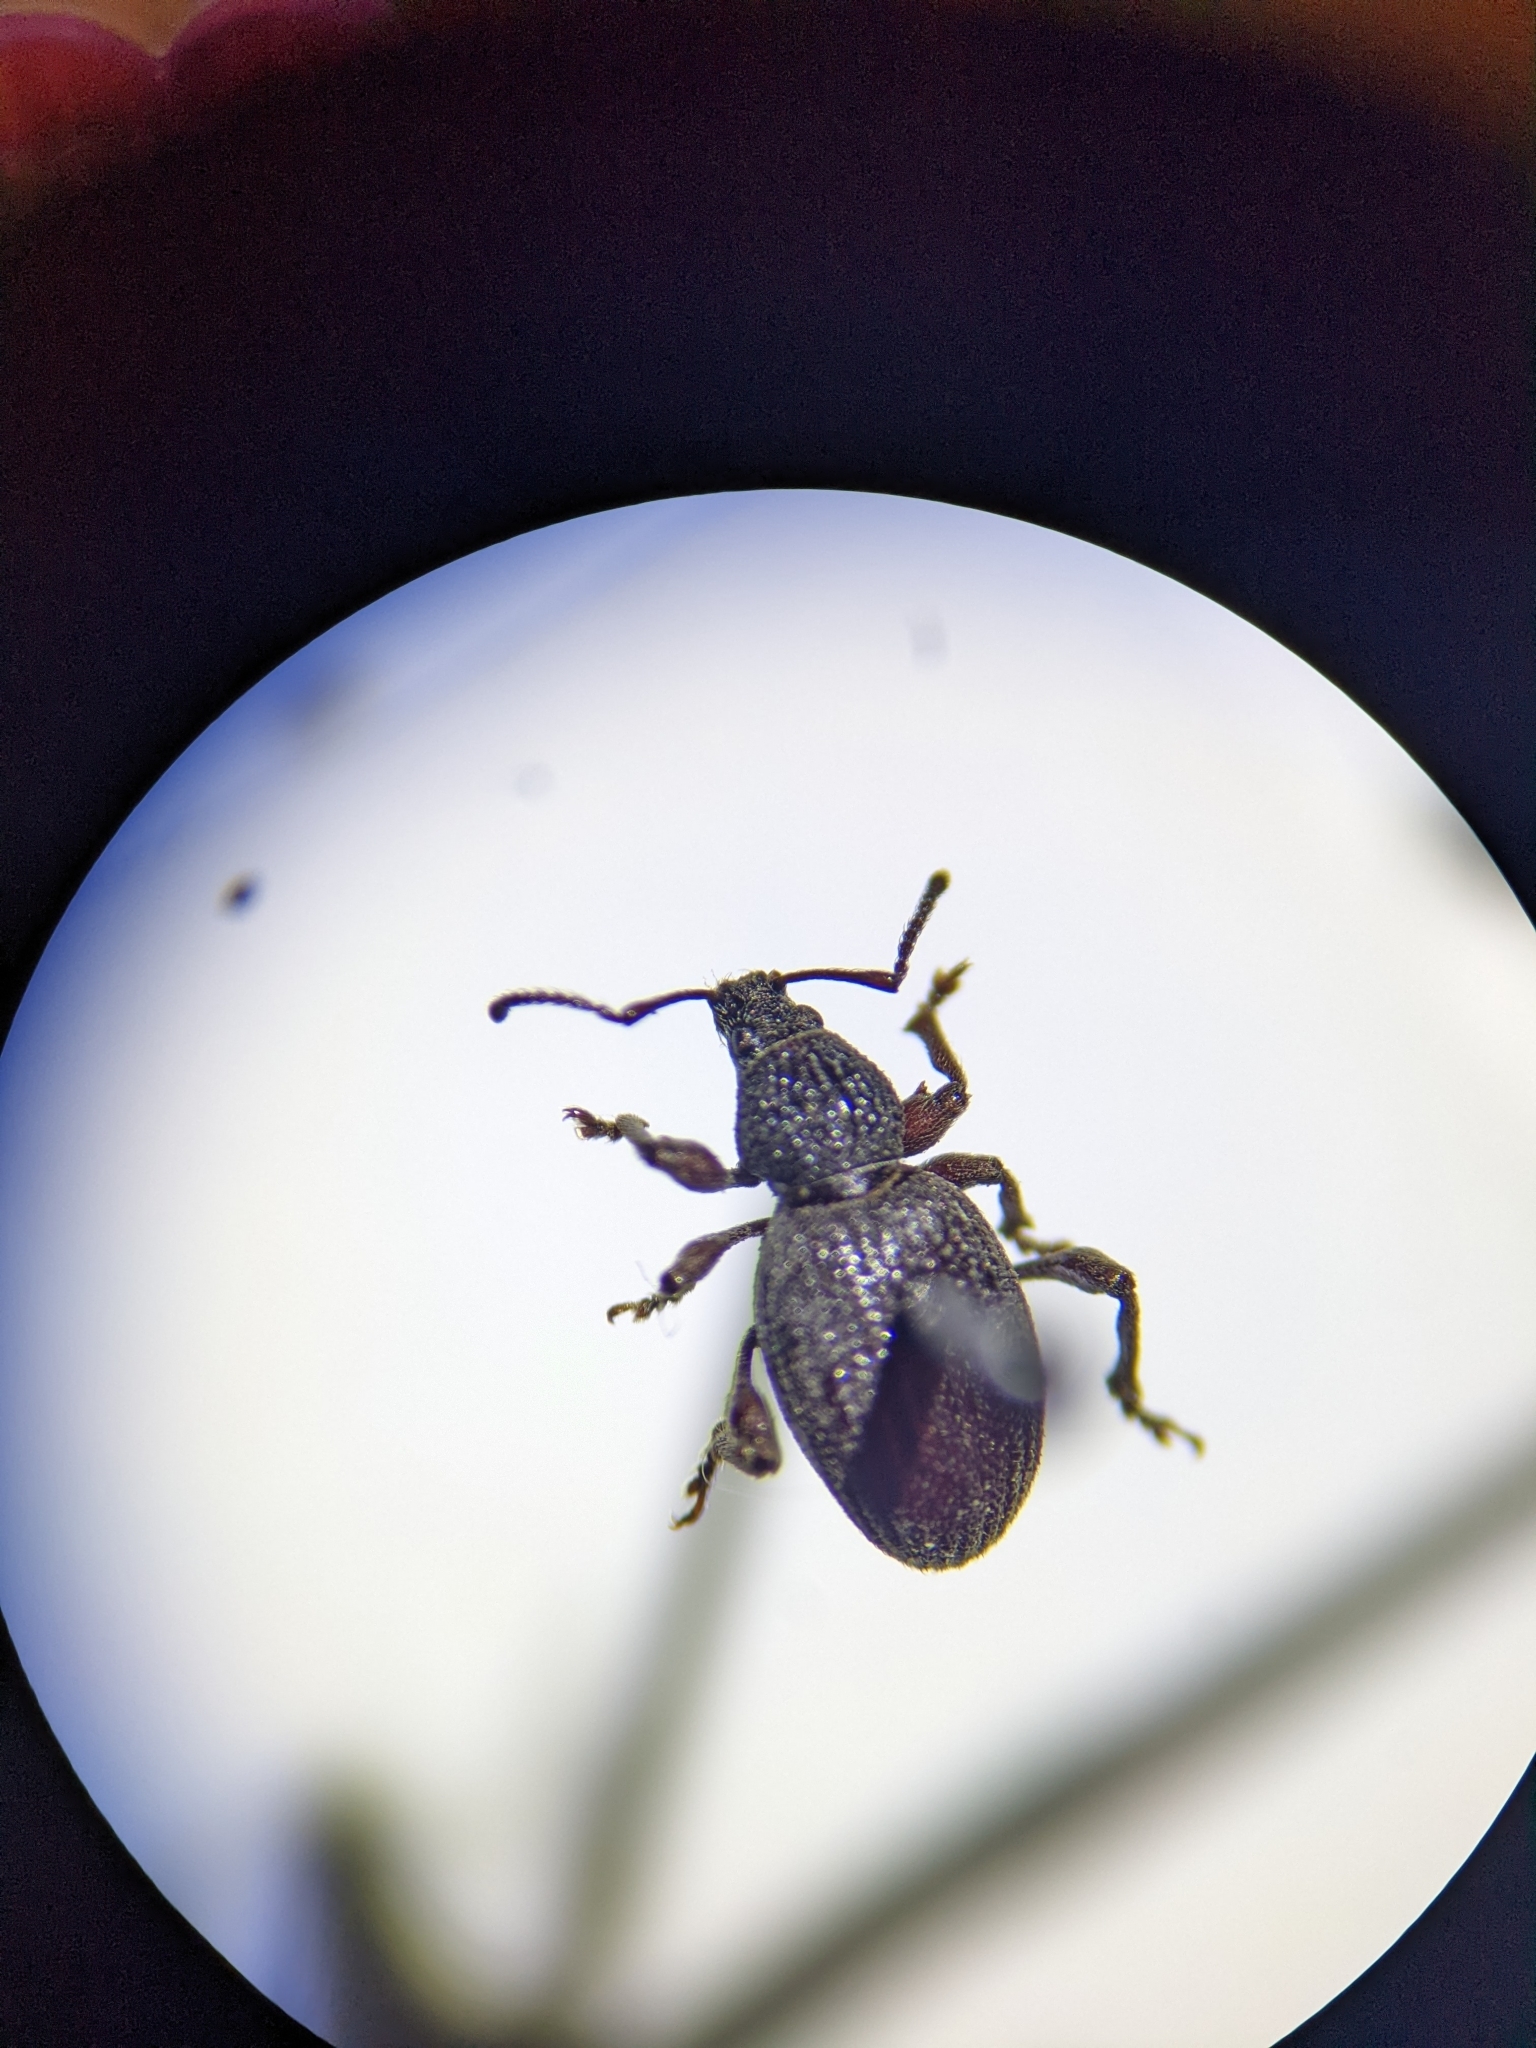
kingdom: Animalia
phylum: Arthropoda
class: Insecta
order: Coleoptera
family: Curculionidae
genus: Otiorhynchus
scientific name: Otiorhynchus ovatus
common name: Strawberry root weevil
